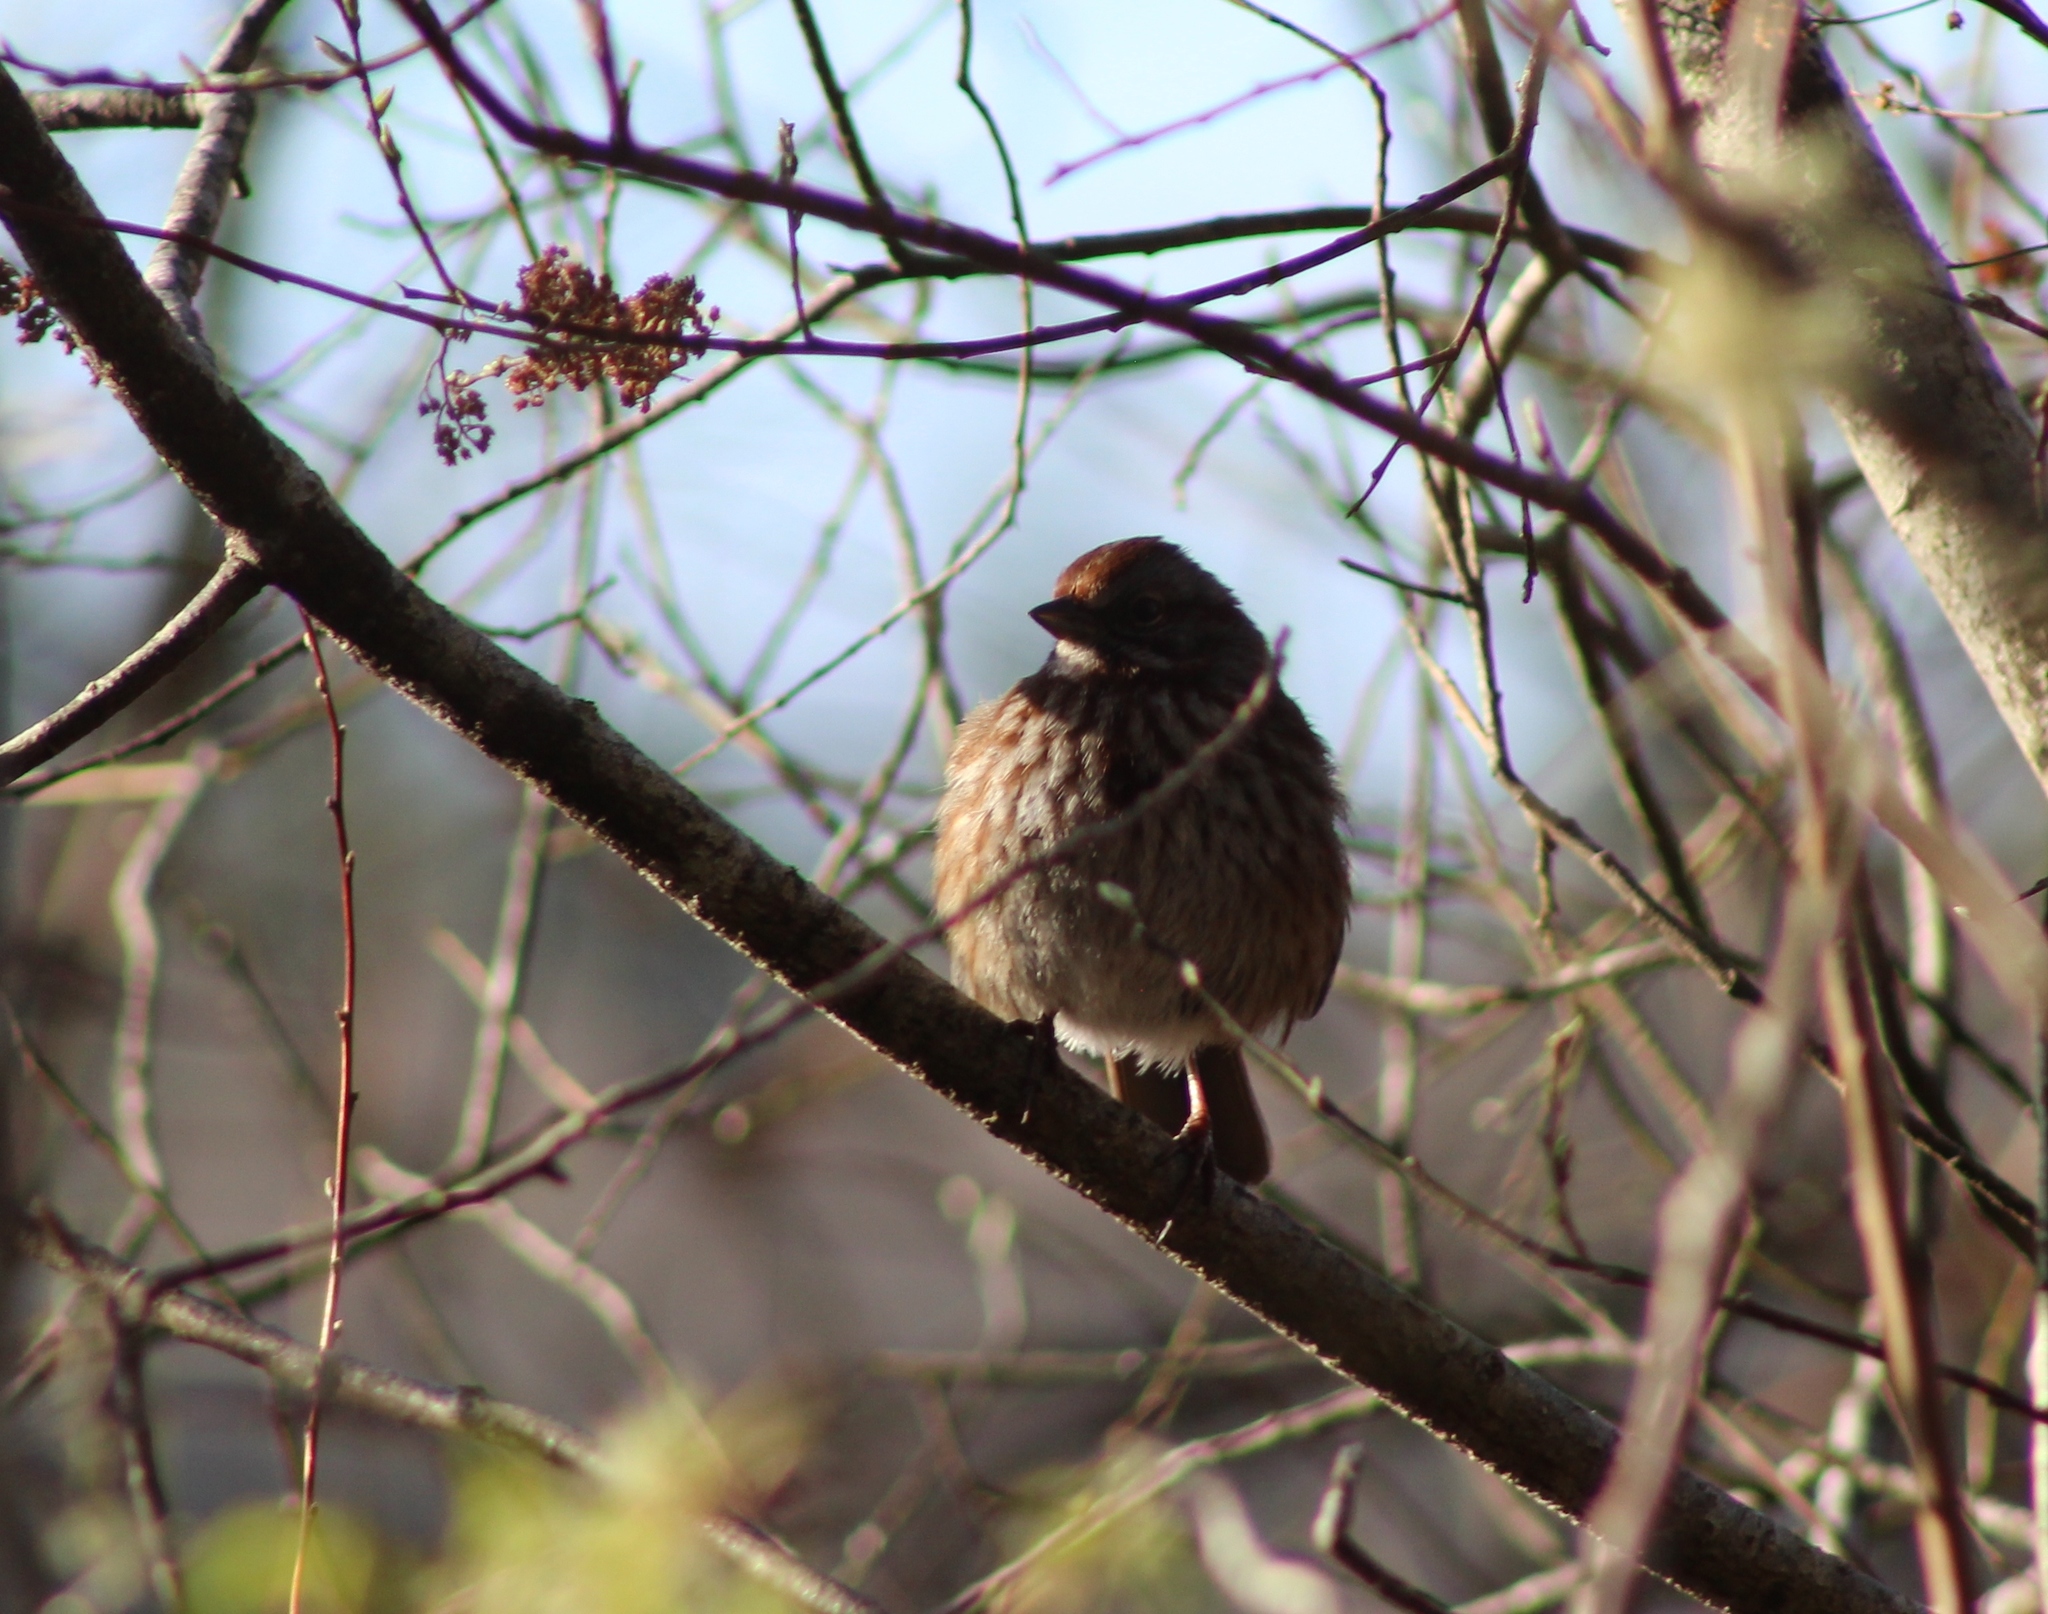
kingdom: Animalia
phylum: Chordata
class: Aves
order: Passeriformes
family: Passerellidae
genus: Melospiza
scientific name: Melospiza melodia
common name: Song sparrow
